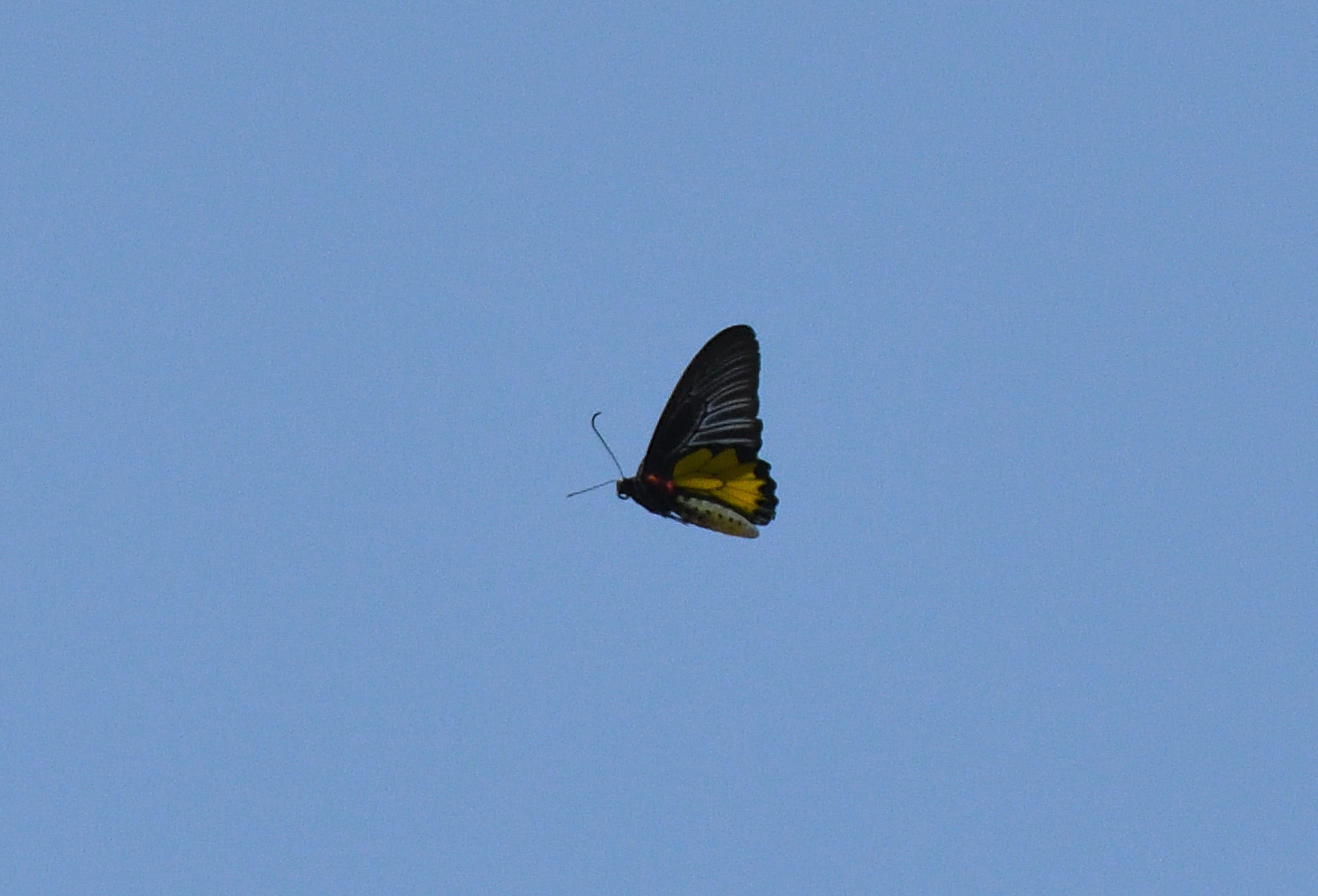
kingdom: Animalia
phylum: Arthropoda
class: Insecta
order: Lepidoptera
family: Papilionidae
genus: Troides
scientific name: Troides minos
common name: Malabar birdwing
